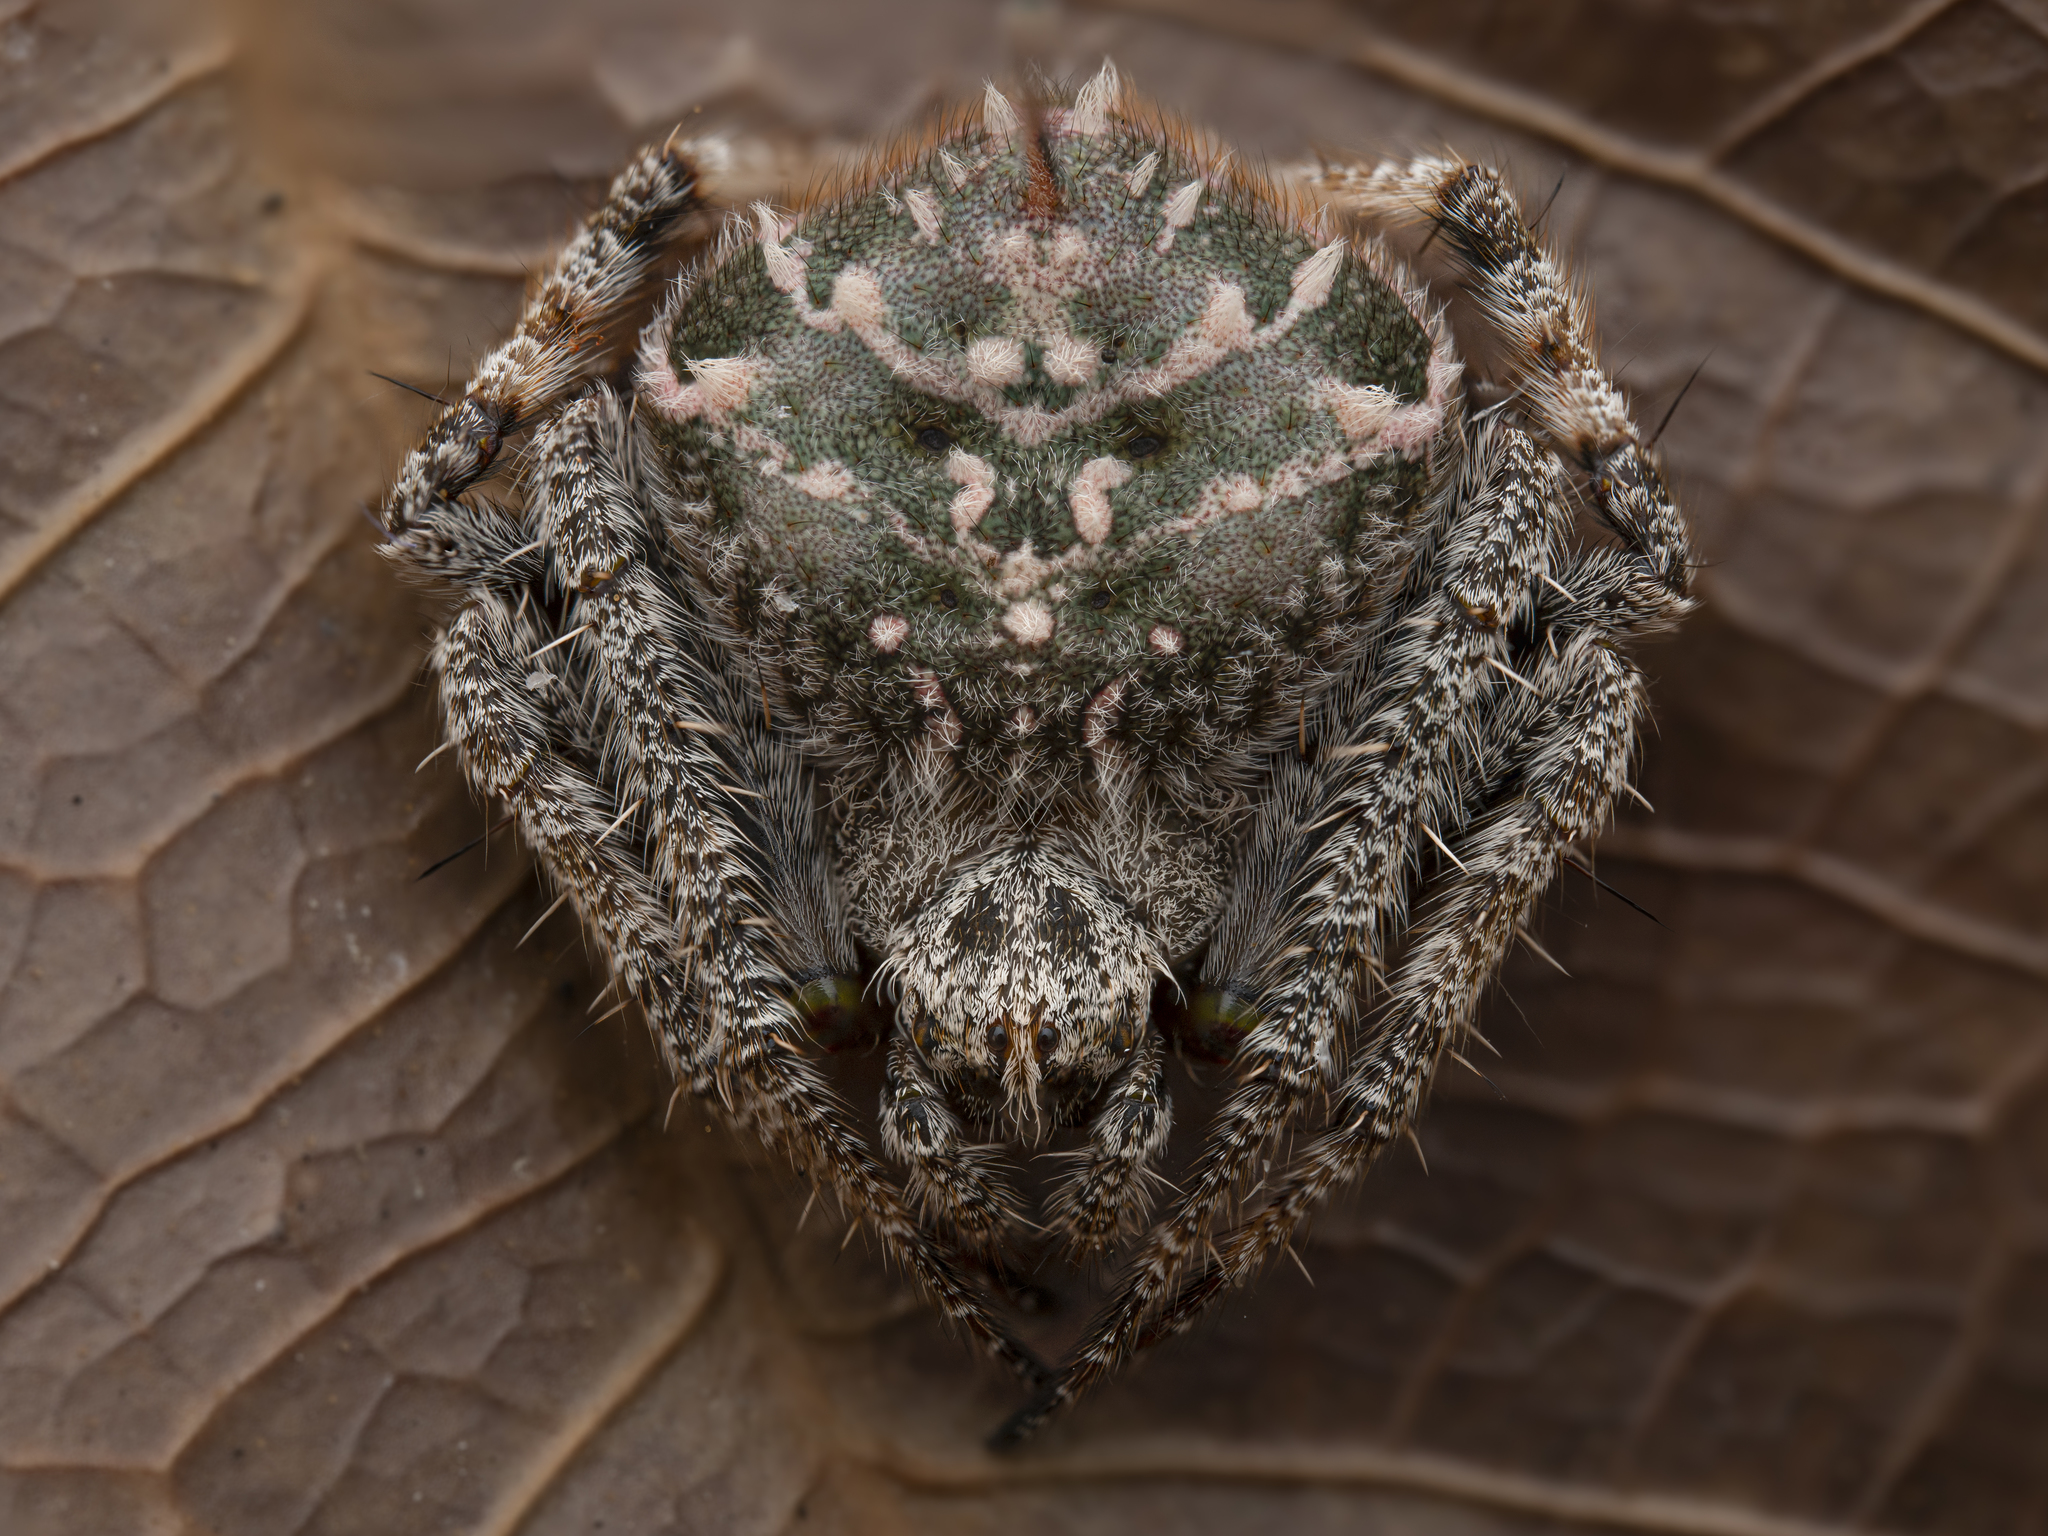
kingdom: Animalia
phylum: Arthropoda
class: Arachnida
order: Araneae
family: Araneidae
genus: Eriovixia
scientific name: Eriovixia laglaizei
